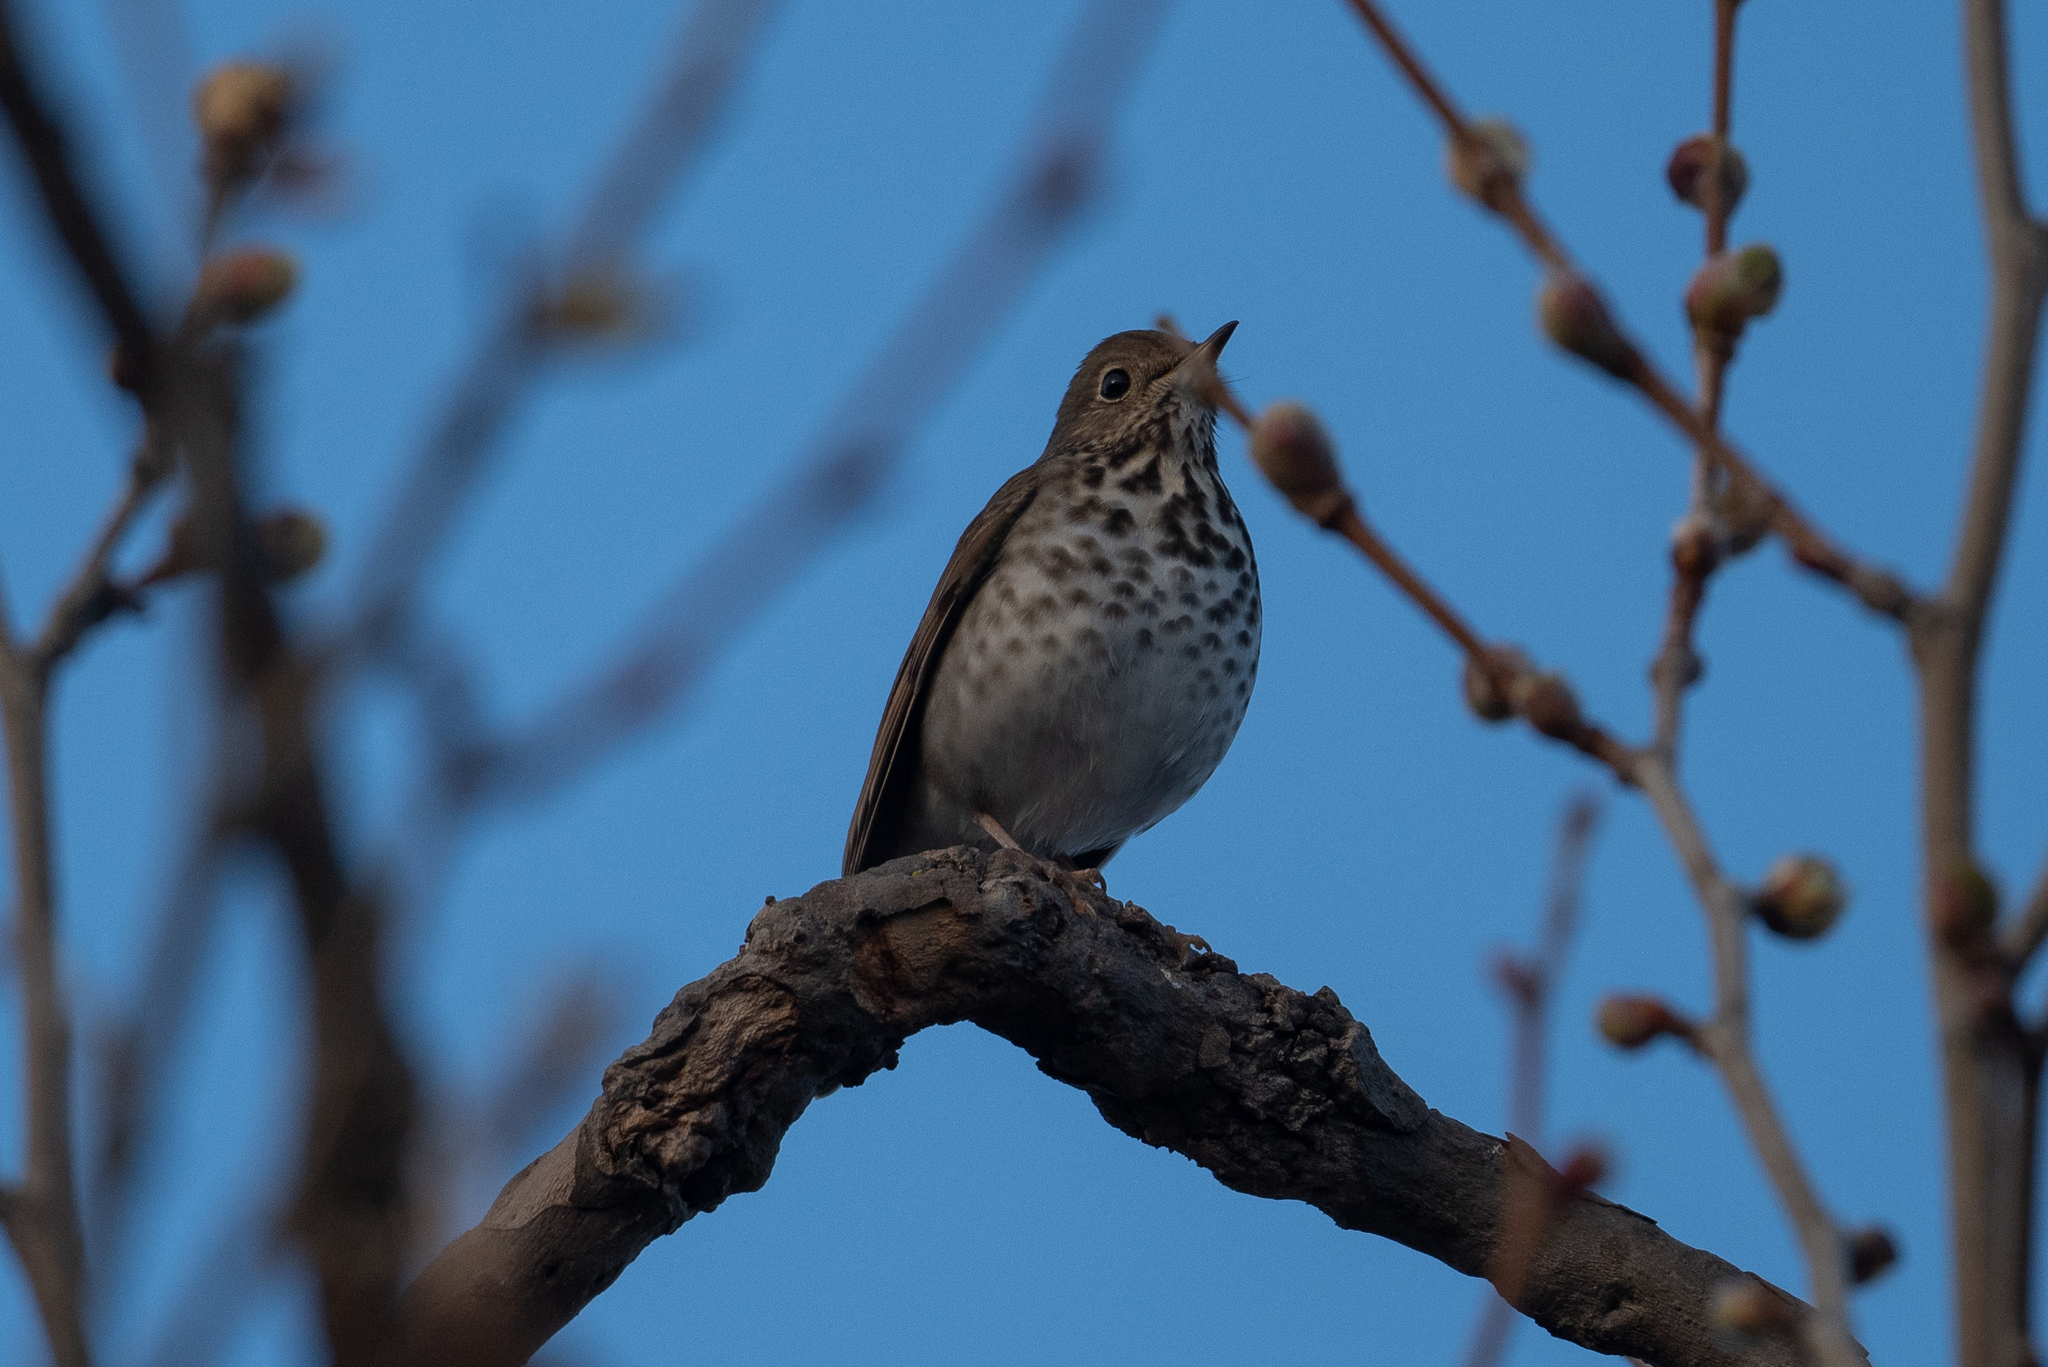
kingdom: Animalia
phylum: Chordata
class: Aves
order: Passeriformes
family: Turdidae
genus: Catharus
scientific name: Catharus guttatus
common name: Hermit thrush
